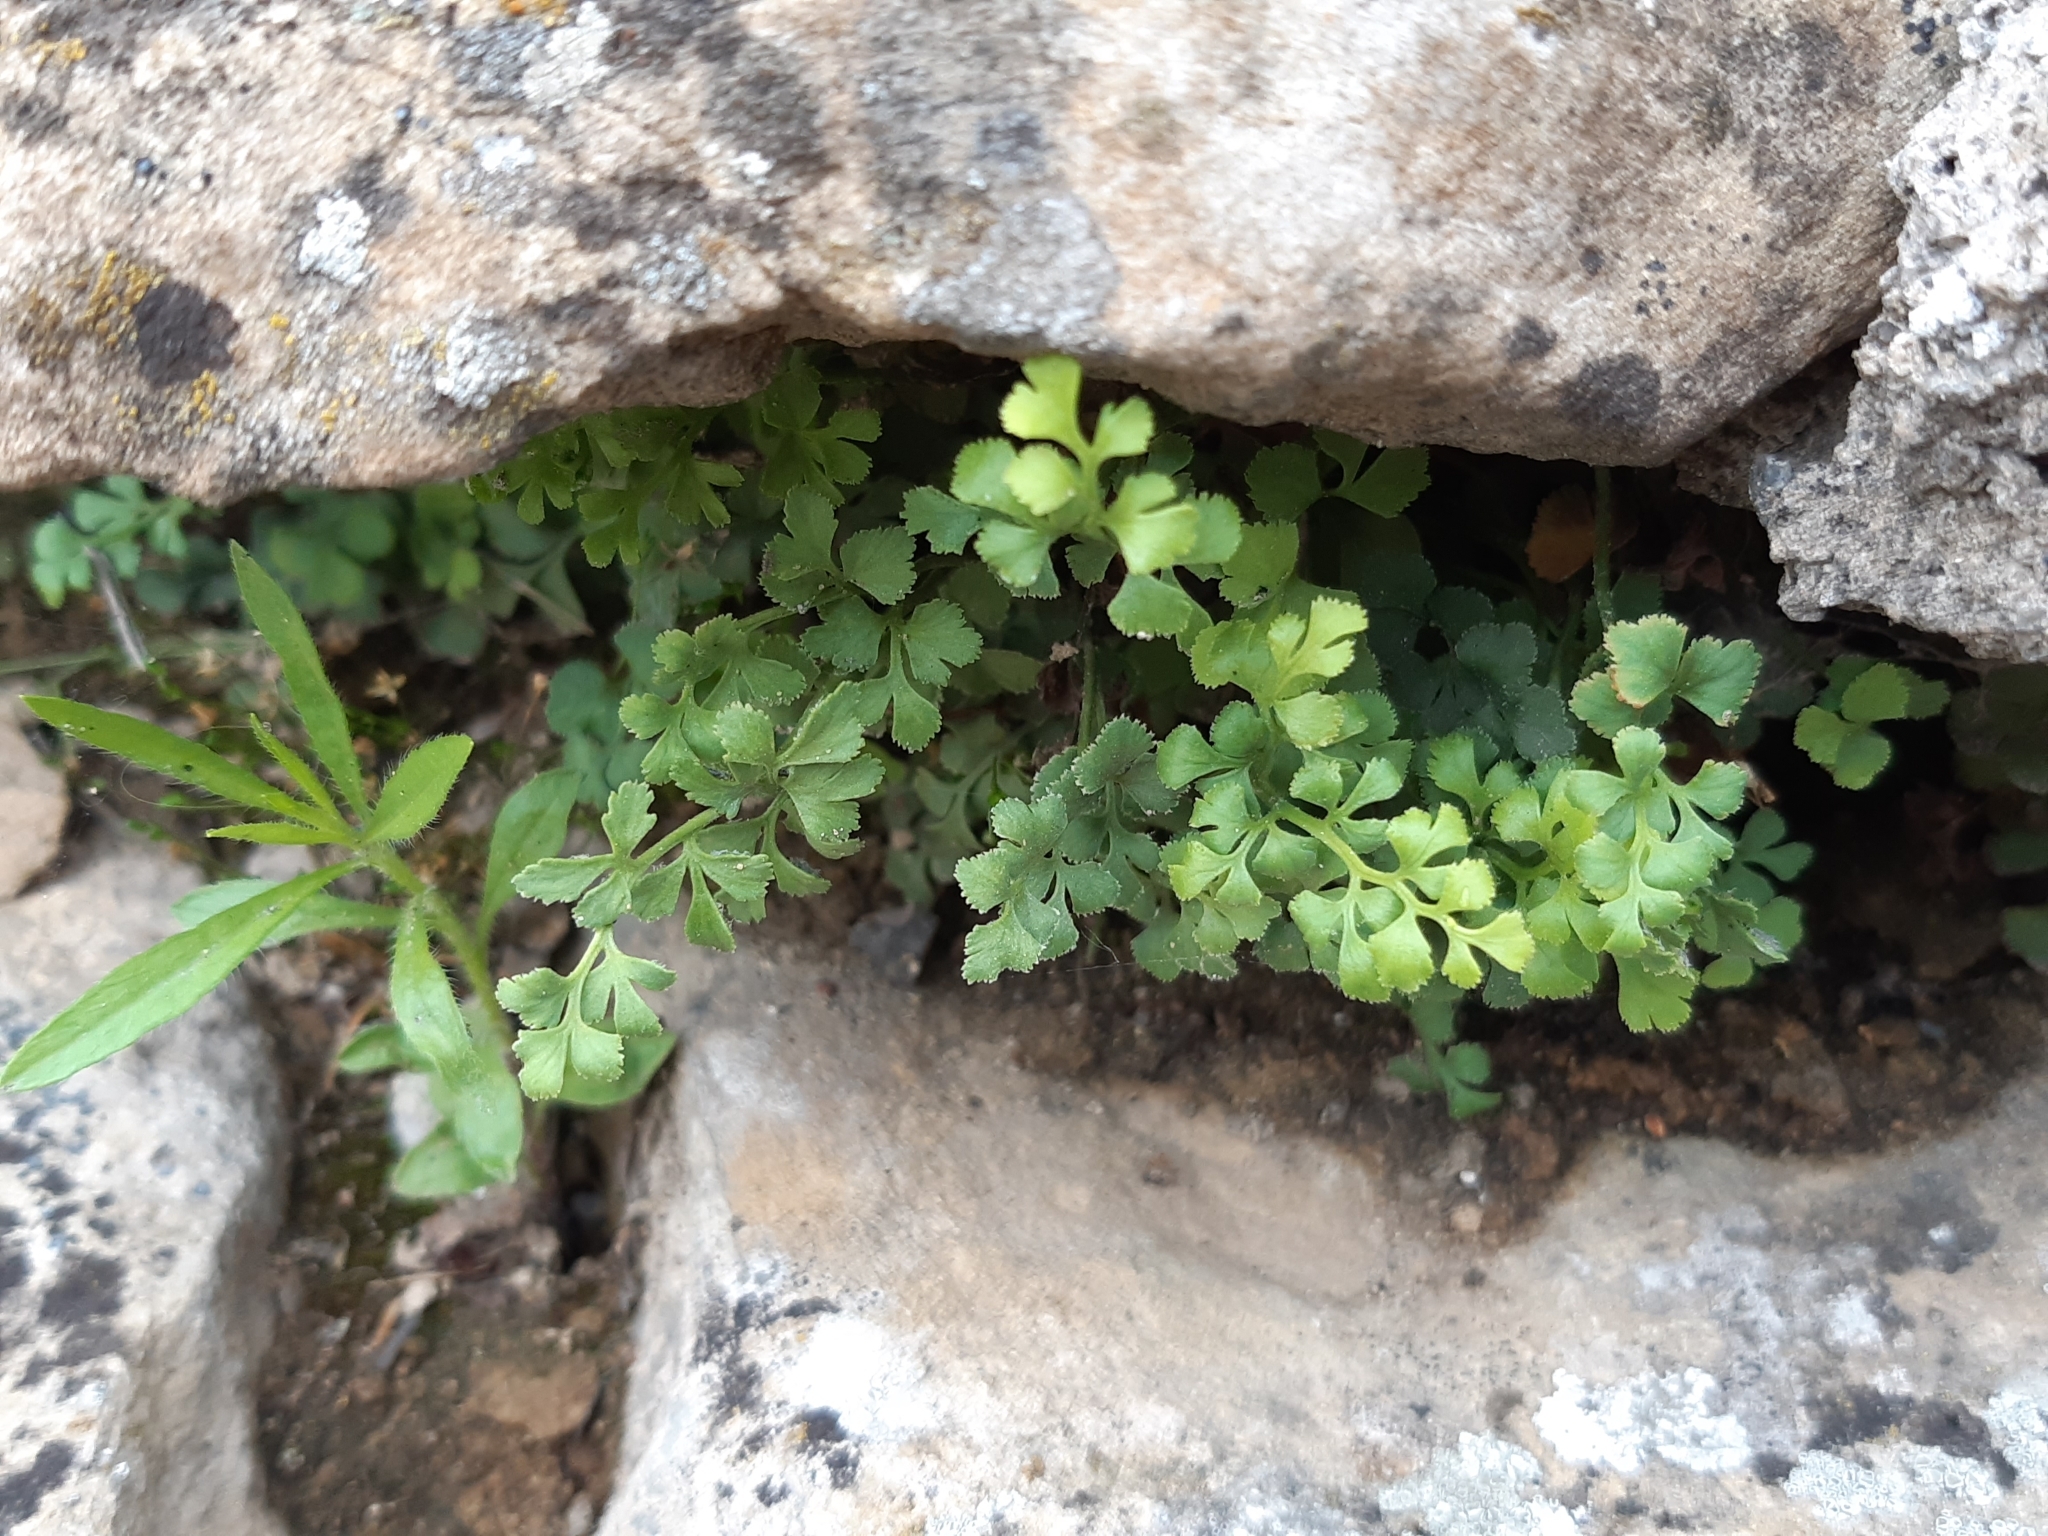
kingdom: Plantae
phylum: Tracheophyta
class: Polypodiopsida
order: Polypodiales
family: Aspleniaceae
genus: Asplenium
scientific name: Asplenium ruta-muraria
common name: Wall-rue
